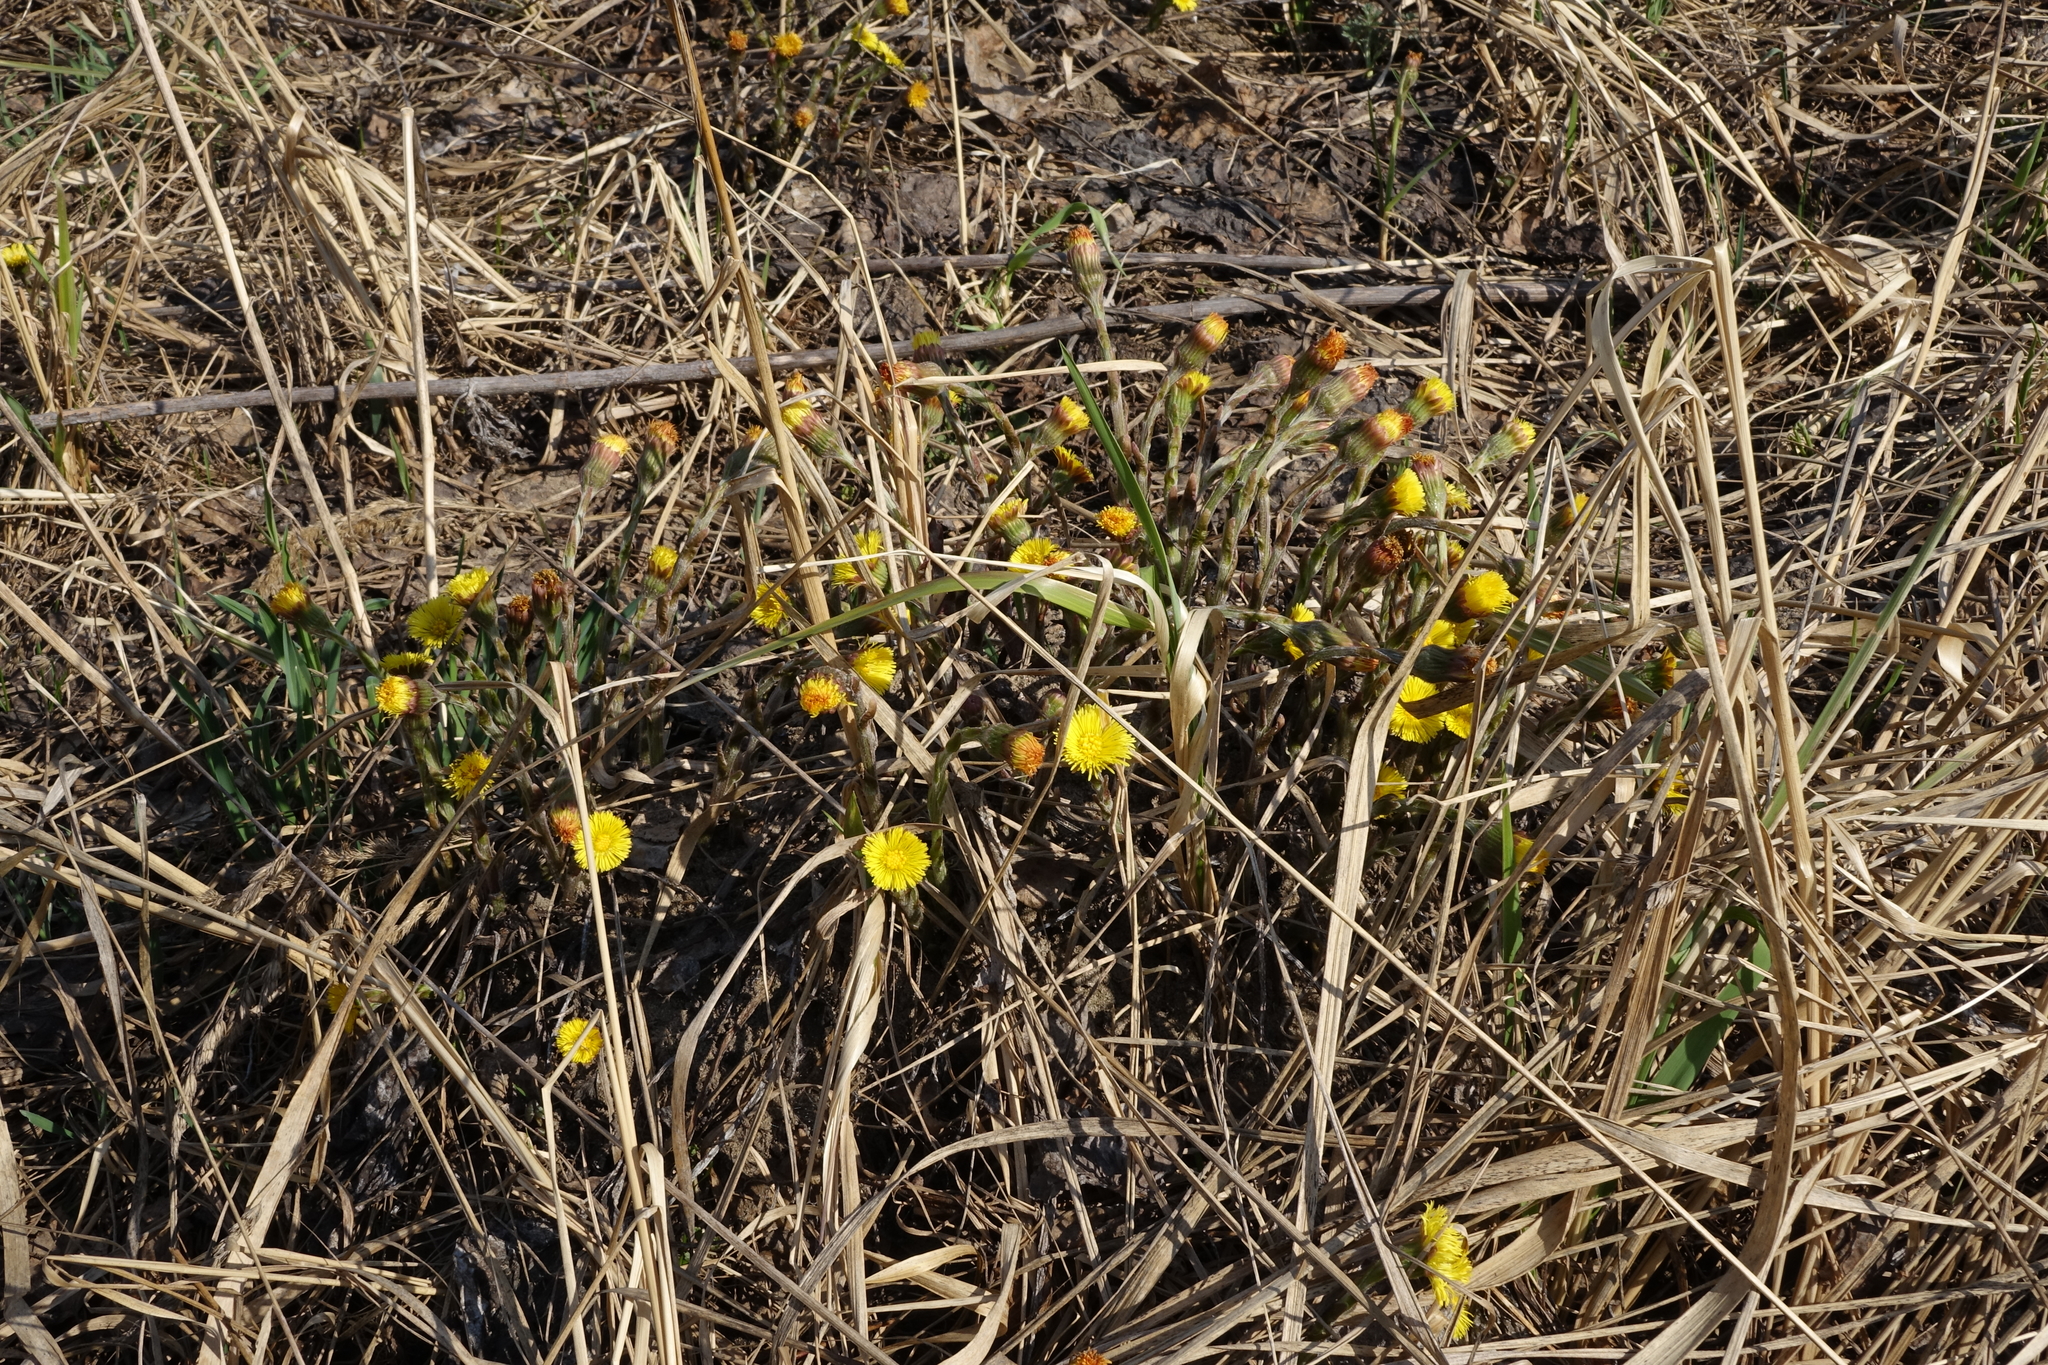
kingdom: Plantae
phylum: Tracheophyta
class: Magnoliopsida
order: Asterales
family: Asteraceae
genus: Tussilago
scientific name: Tussilago farfara
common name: Coltsfoot
